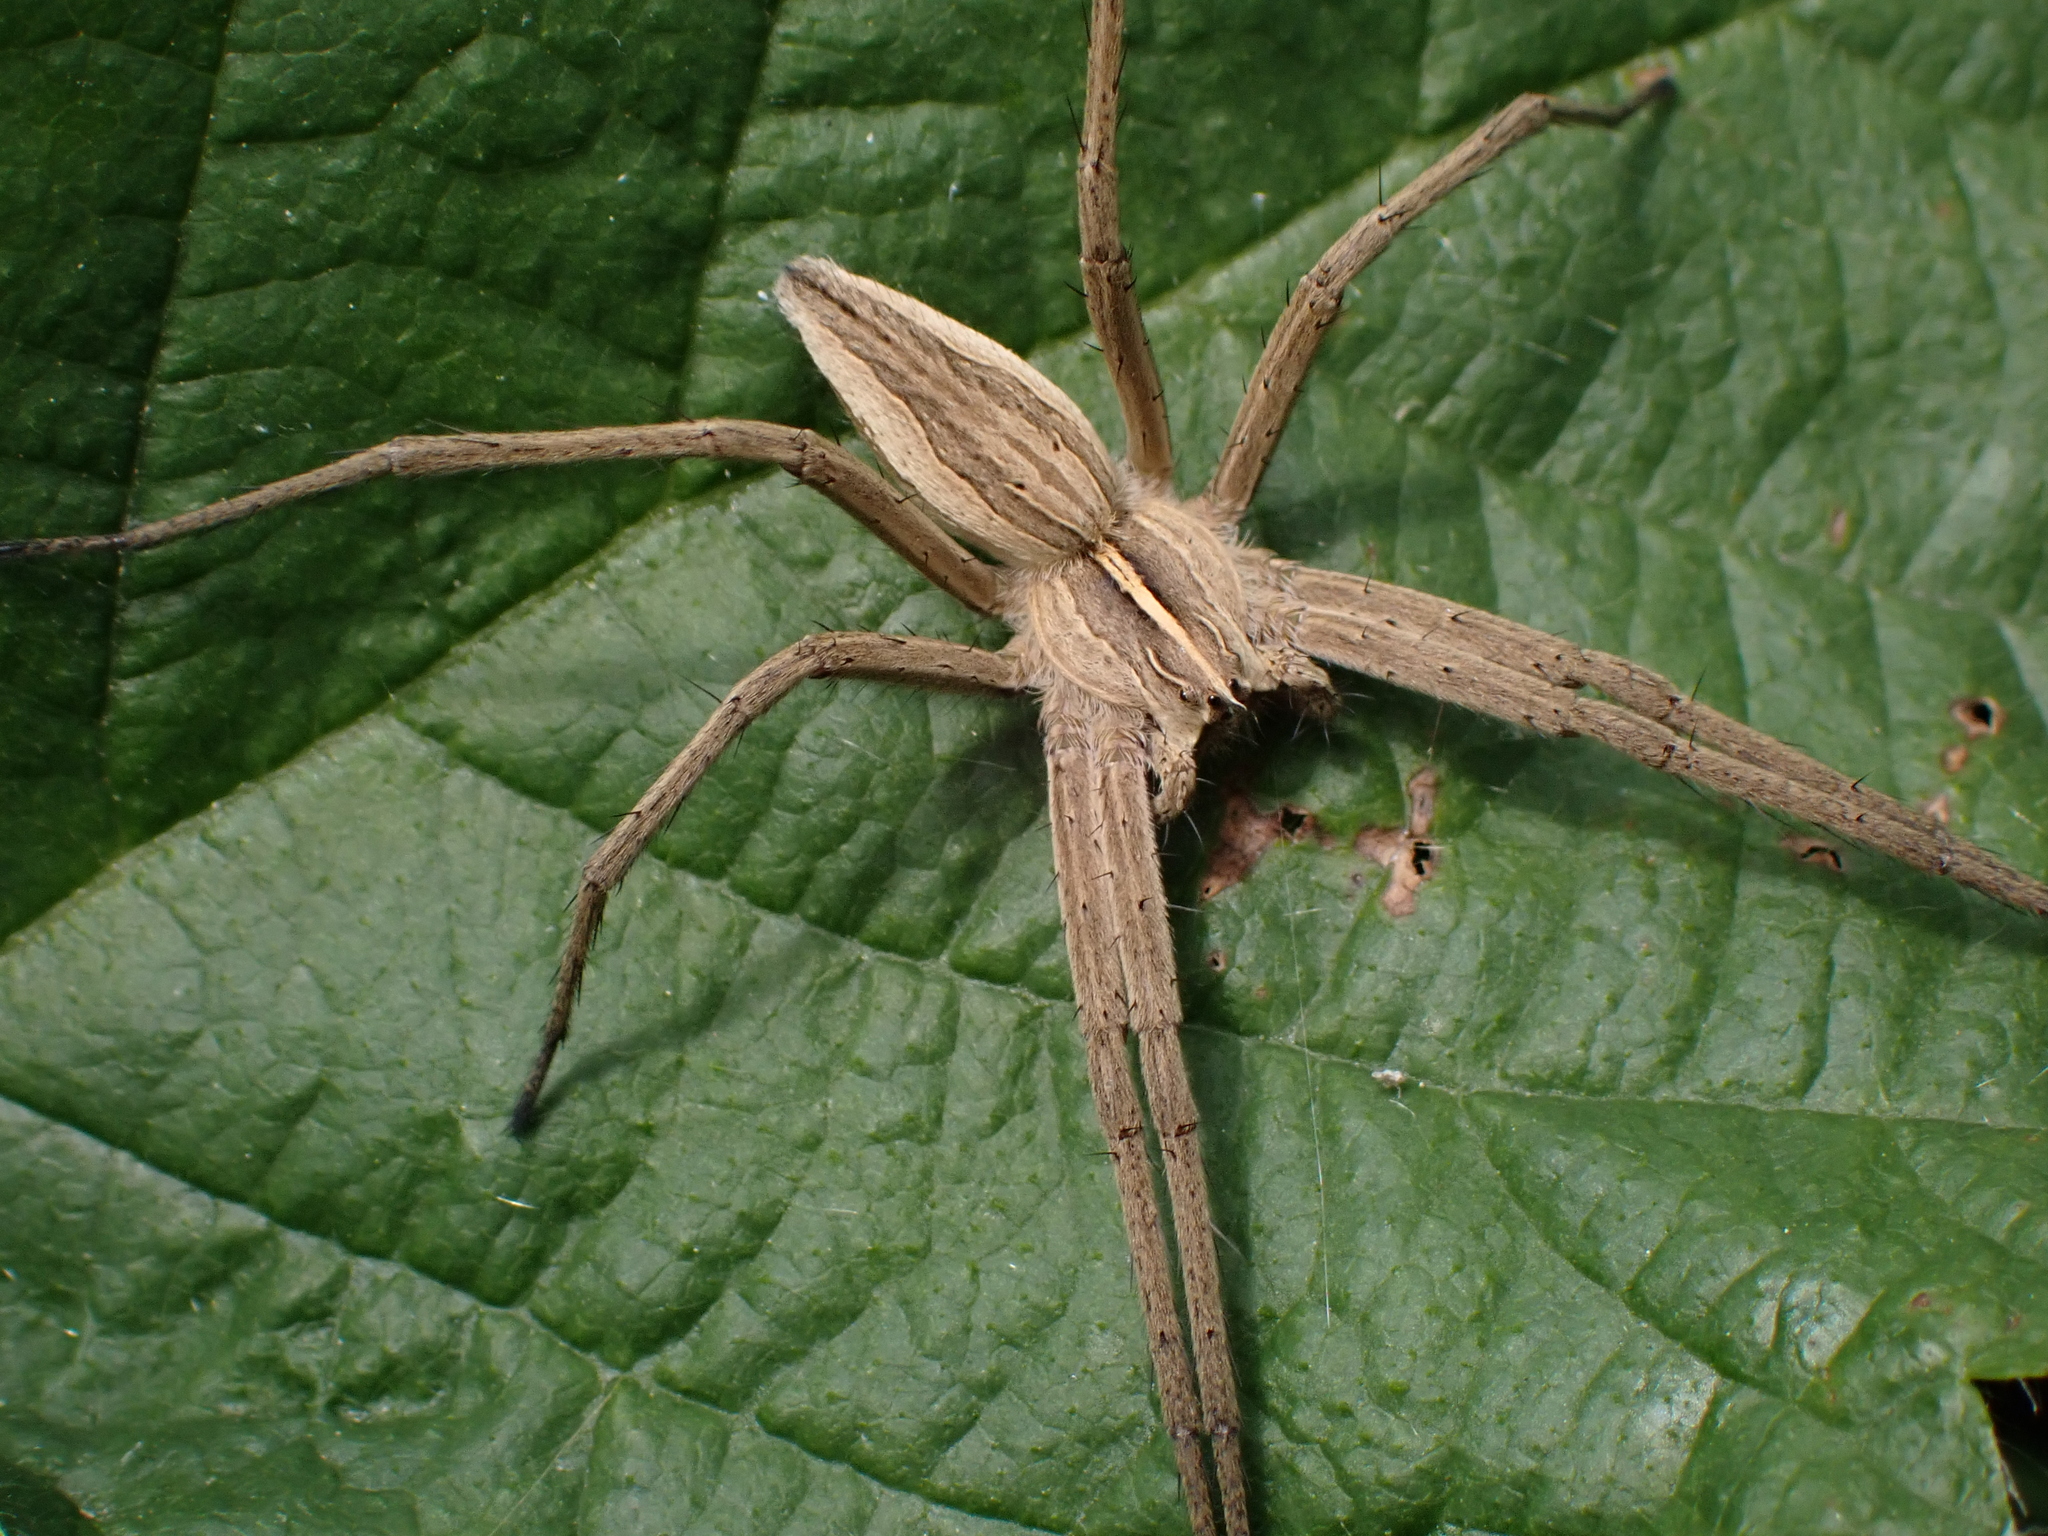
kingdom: Animalia
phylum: Arthropoda
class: Arachnida
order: Araneae
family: Pisauridae
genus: Pisaura
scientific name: Pisaura mirabilis
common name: Tent spider
